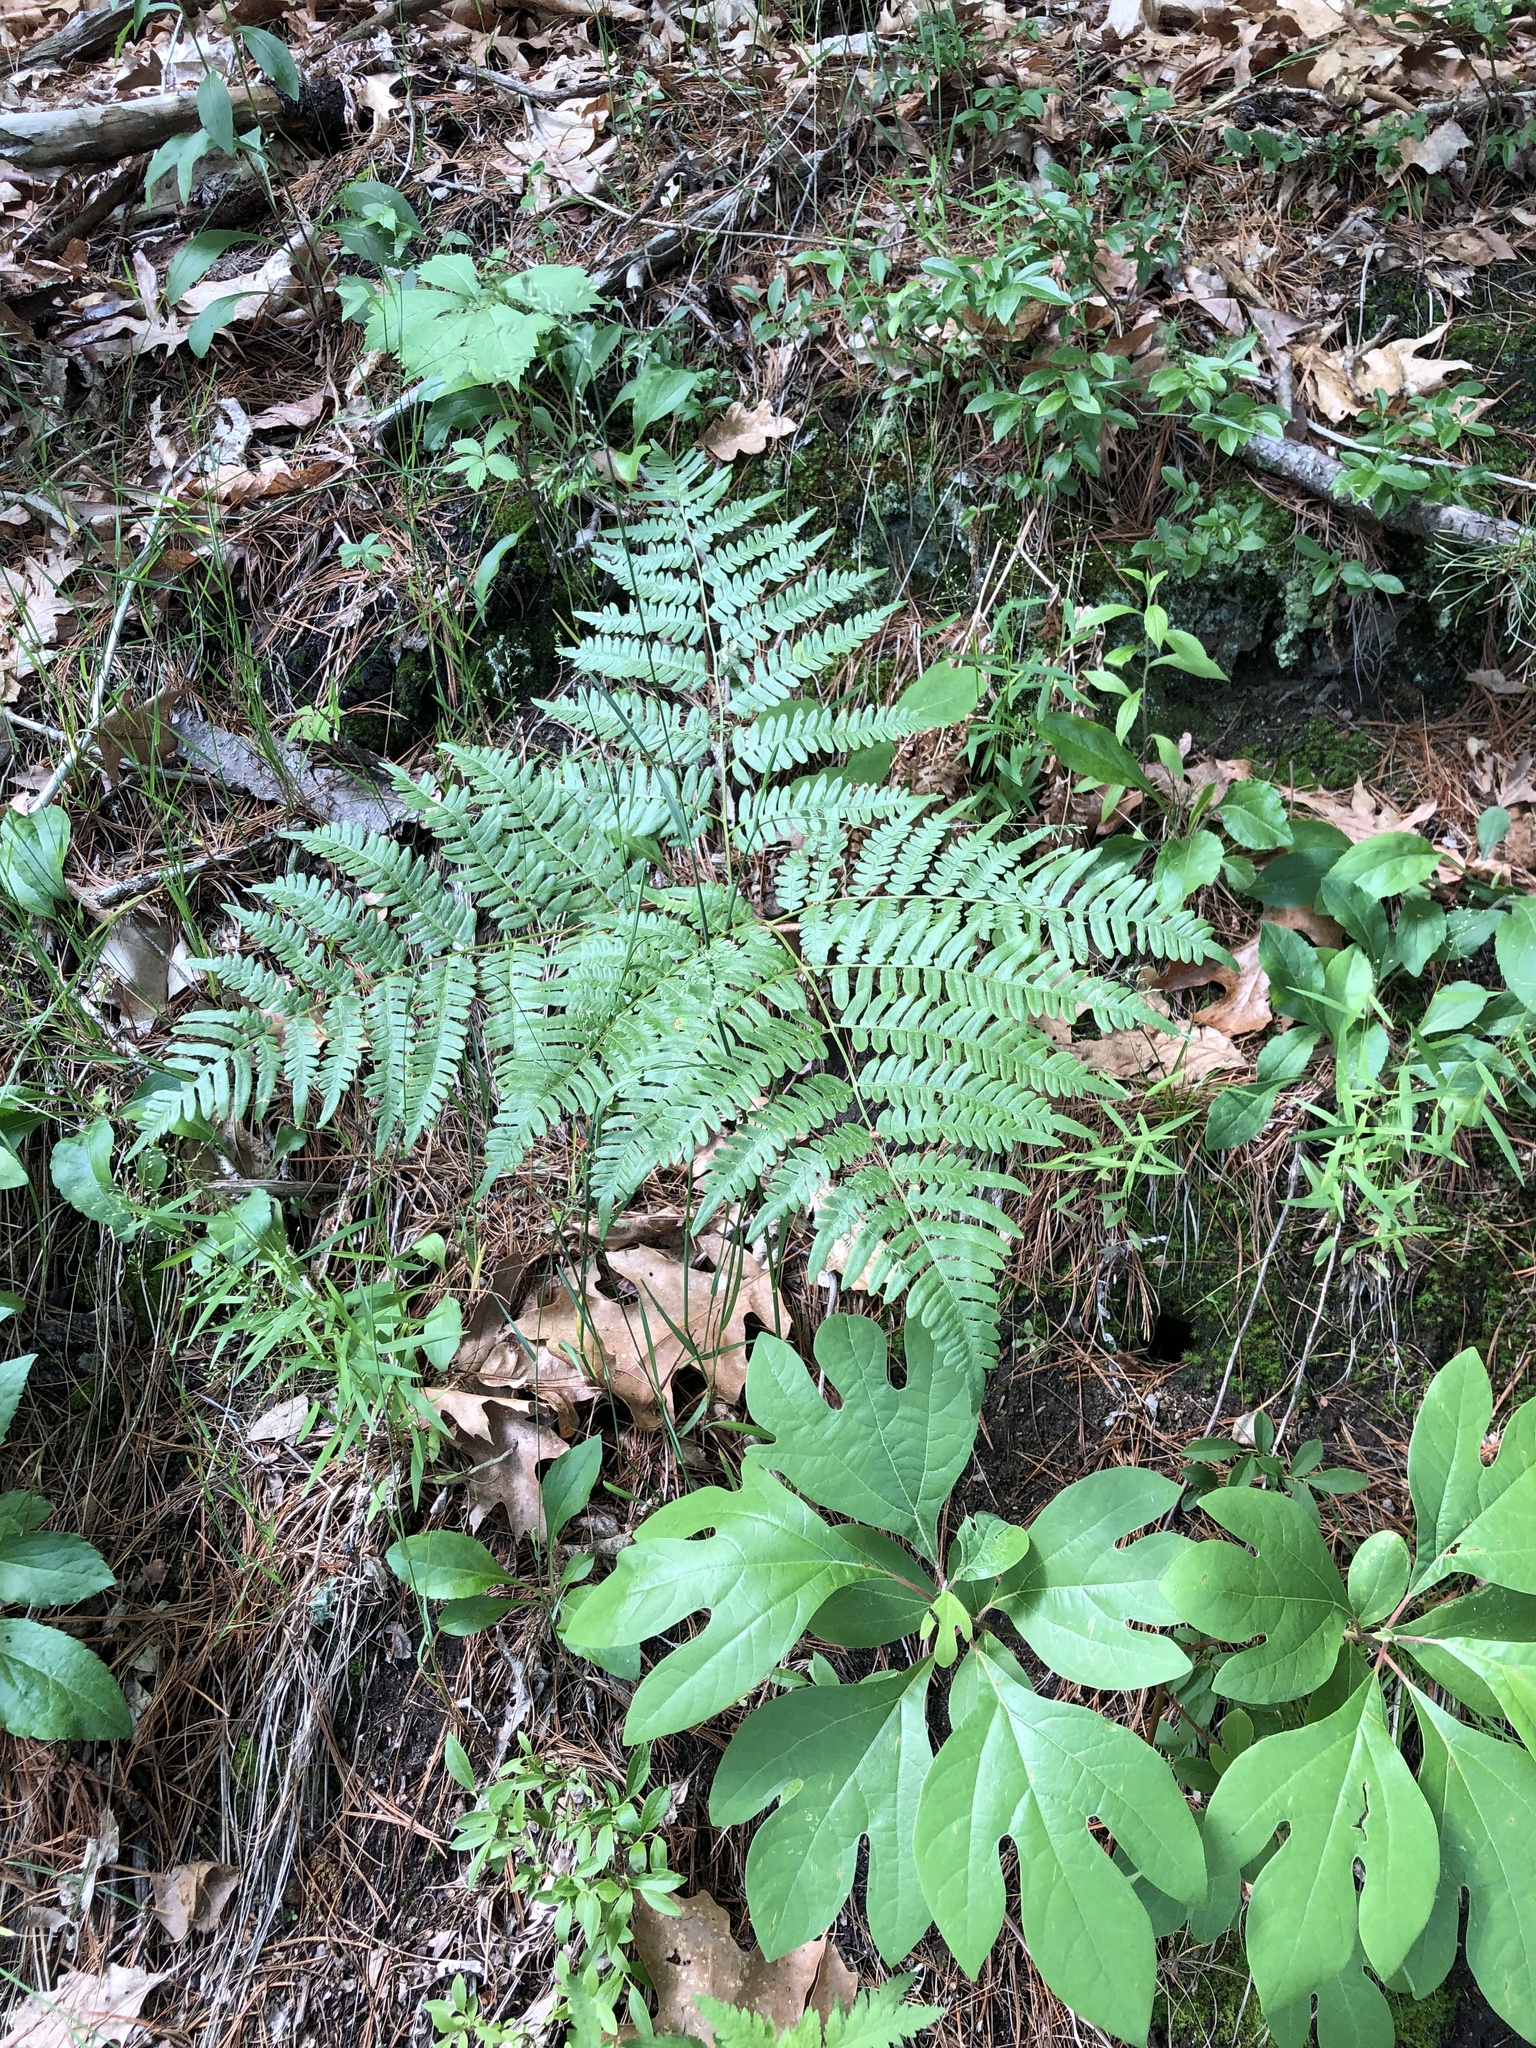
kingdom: Plantae
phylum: Tracheophyta
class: Polypodiopsida
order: Polypodiales
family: Dennstaedtiaceae
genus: Pteridium
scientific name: Pteridium aquilinum
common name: Bracken
